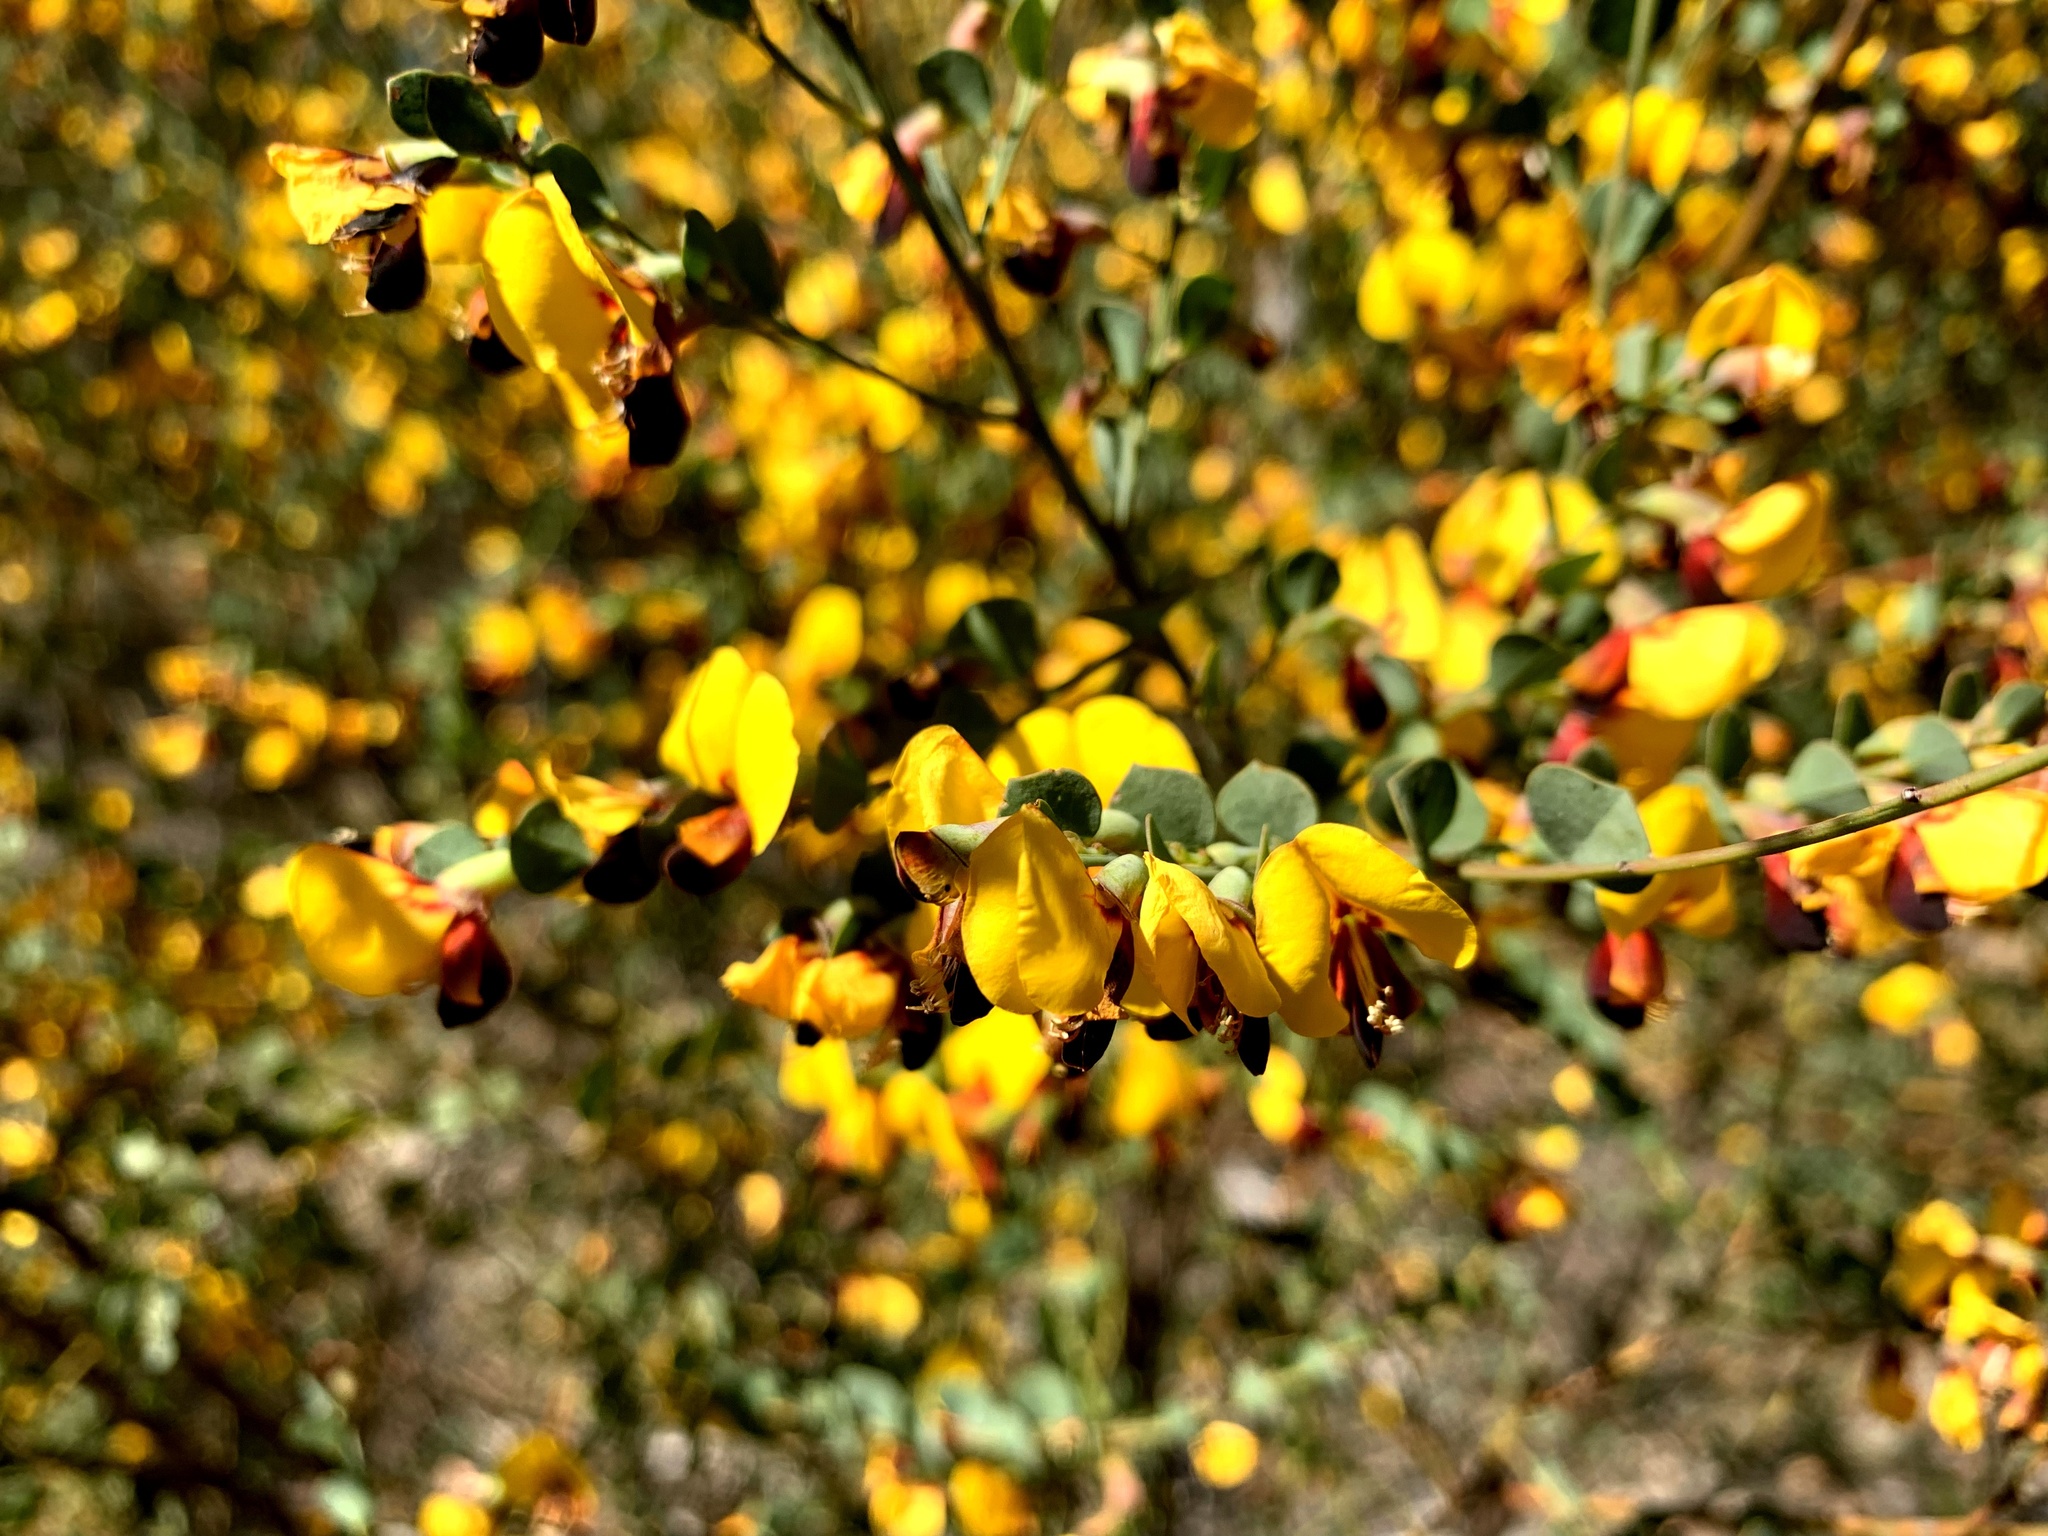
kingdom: Plantae
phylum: Tracheophyta
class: Magnoliopsida
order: Fabales
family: Fabaceae
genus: Bossiaea
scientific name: Bossiaea rhombifolia
